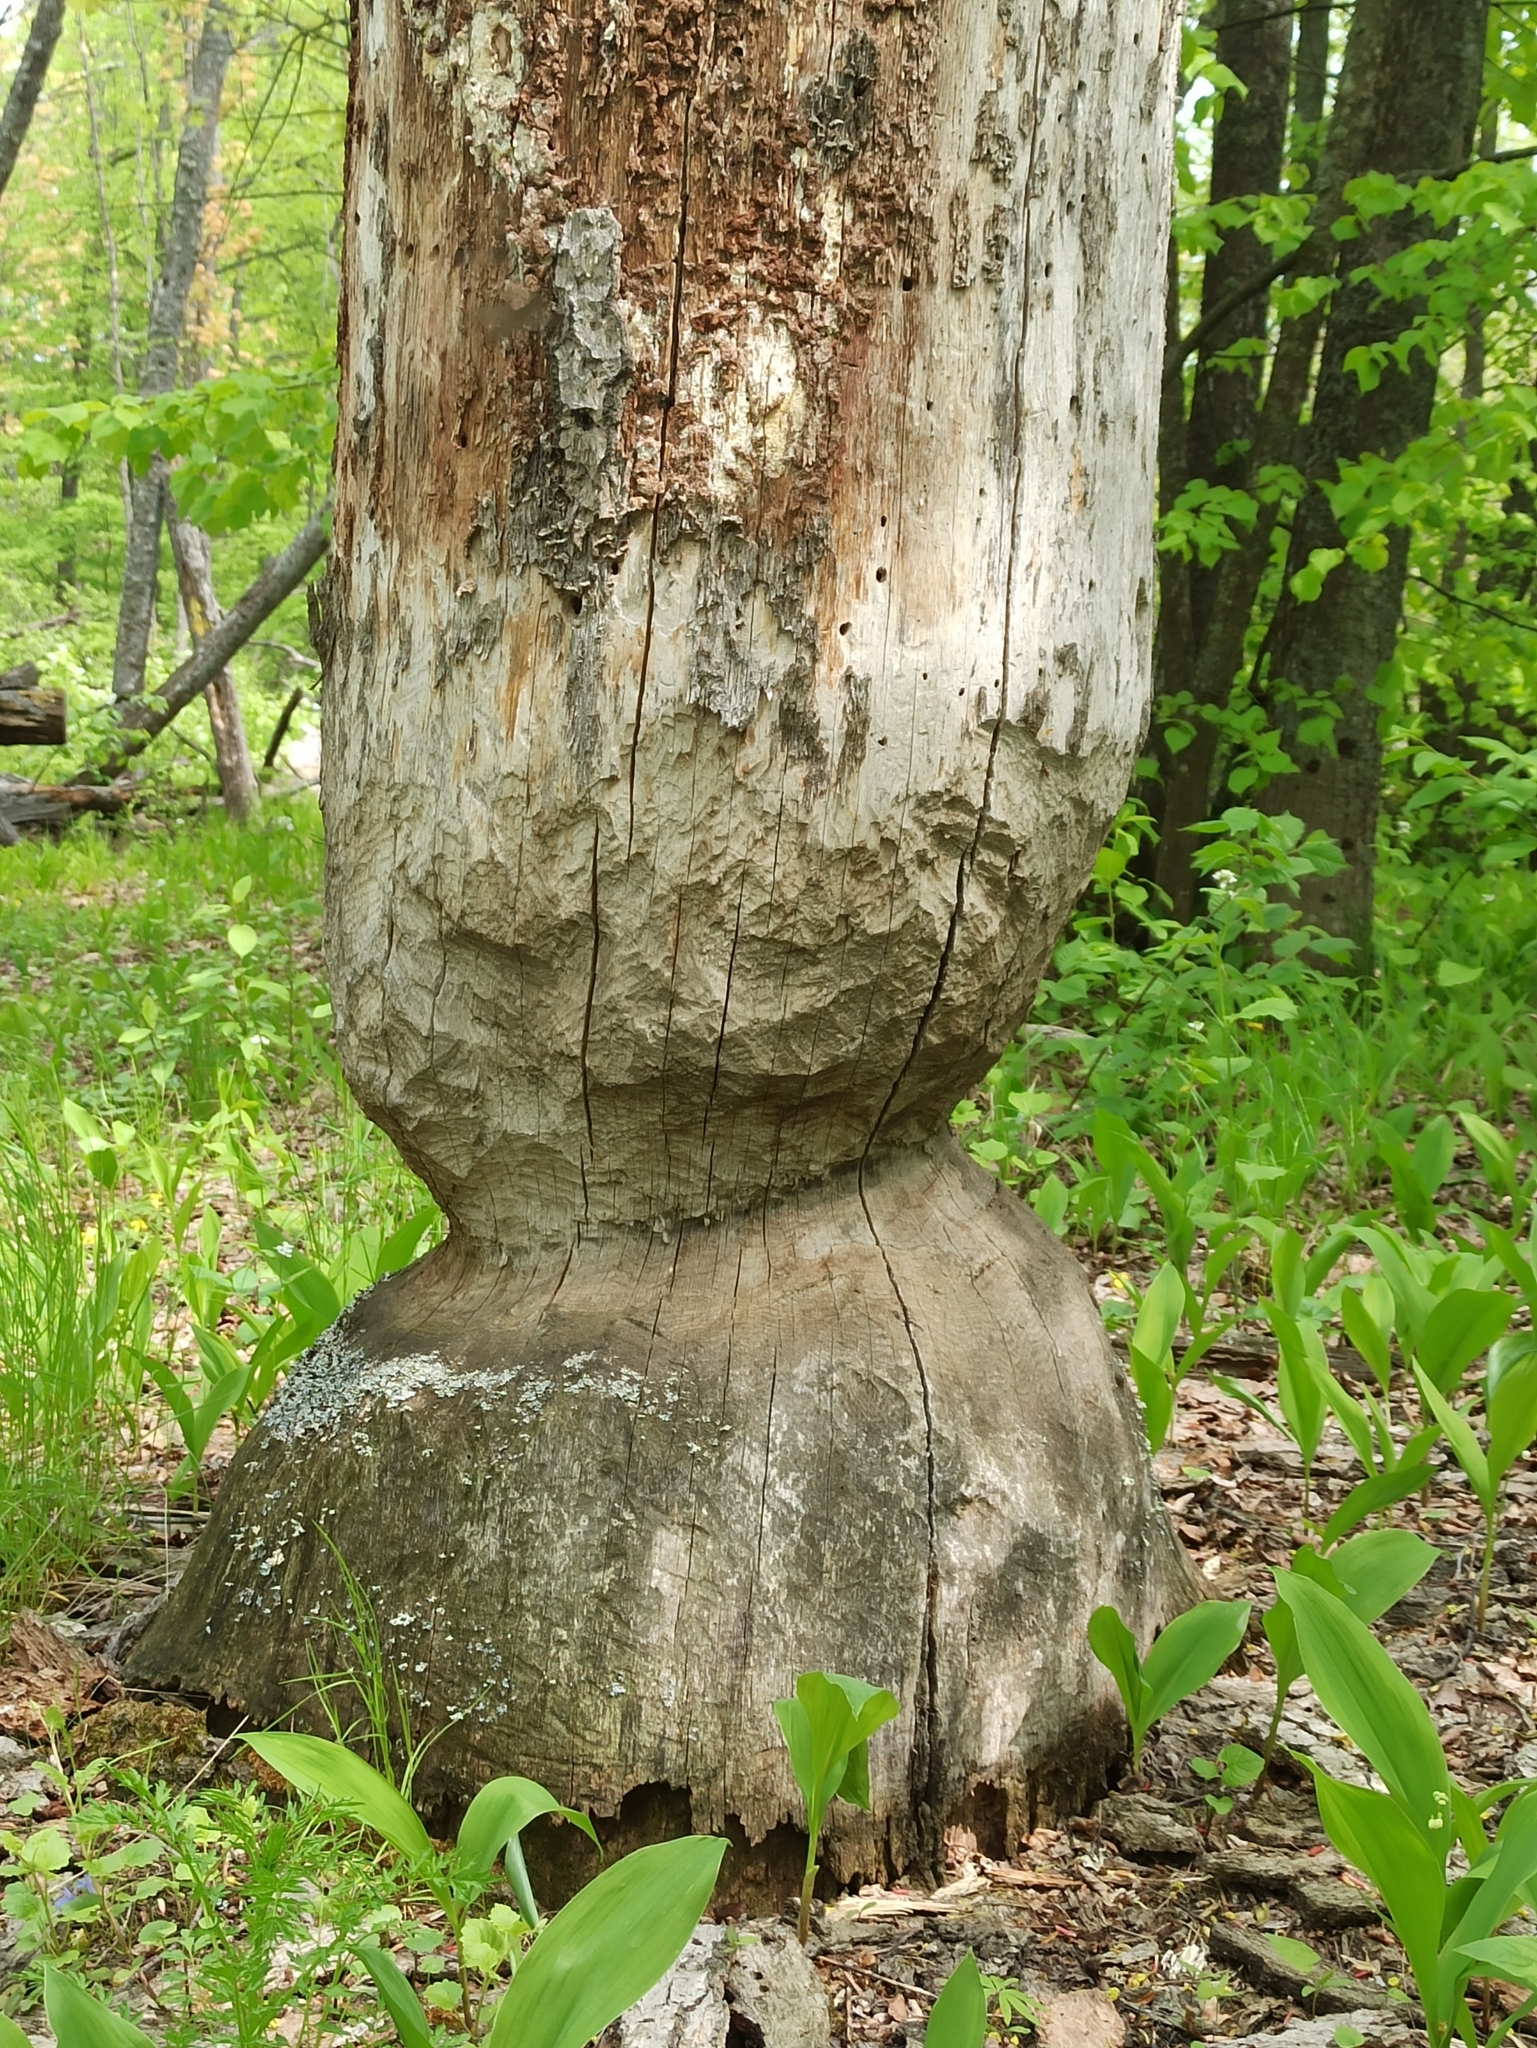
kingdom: Animalia
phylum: Chordata
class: Mammalia
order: Rodentia
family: Castoridae
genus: Castor
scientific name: Castor fiber
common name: Eurasian beaver
